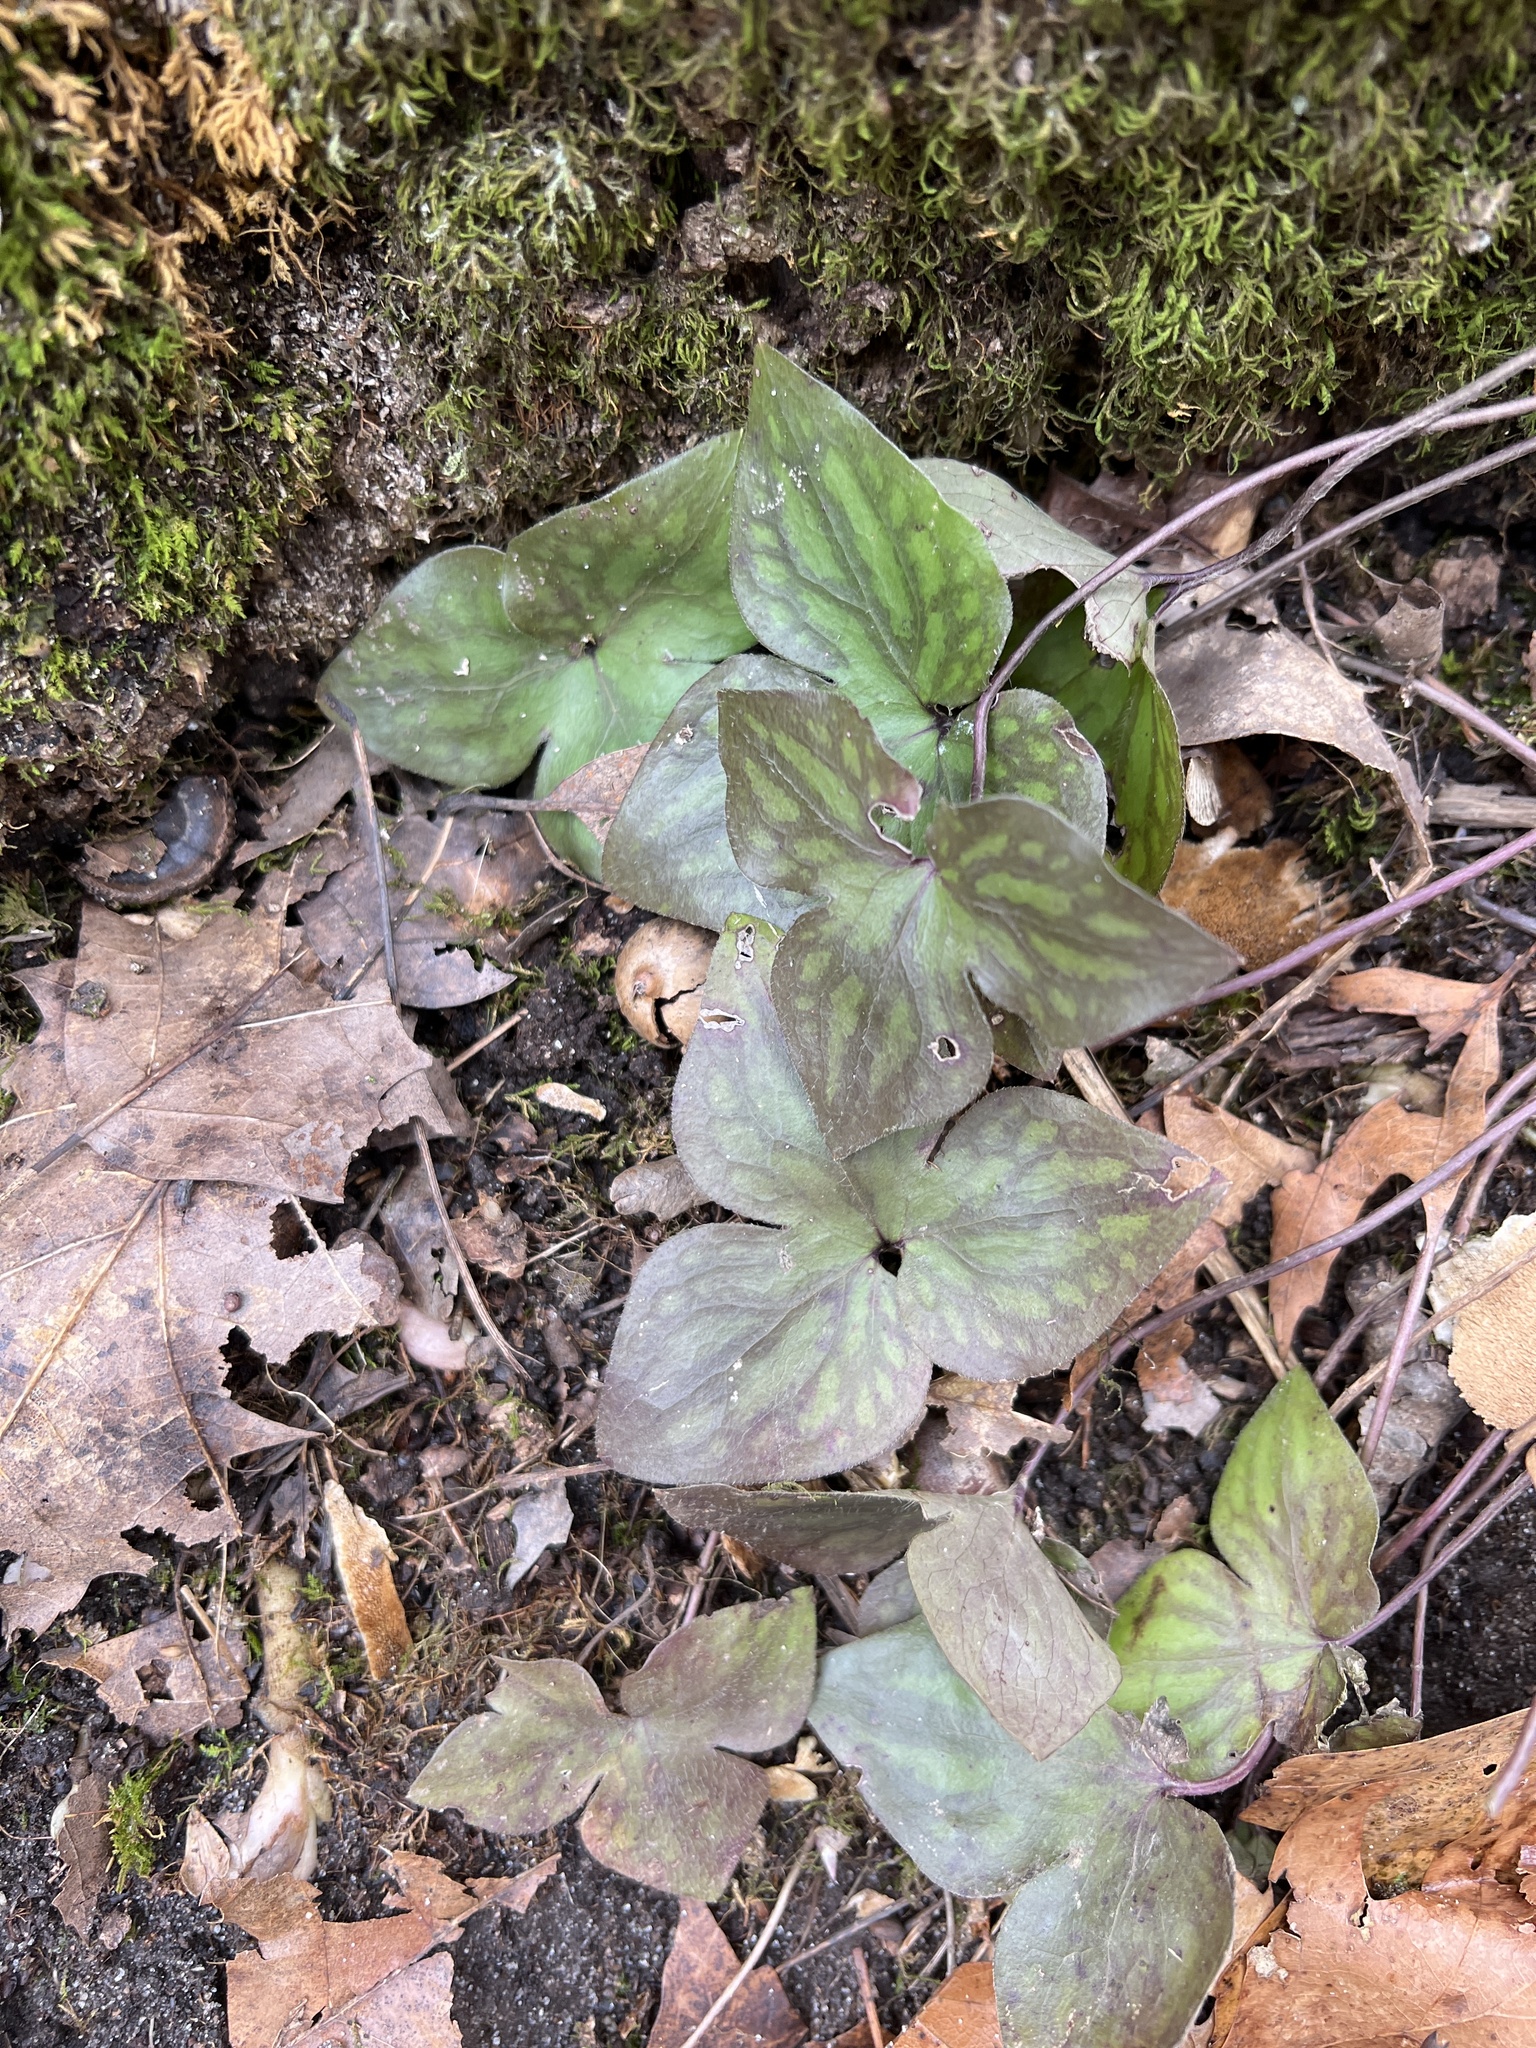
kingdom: Plantae
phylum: Tracheophyta
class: Magnoliopsida
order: Ranunculales
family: Ranunculaceae
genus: Hepatica
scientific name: Hepatica acutiloba
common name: Sharp-lobed hepatica
